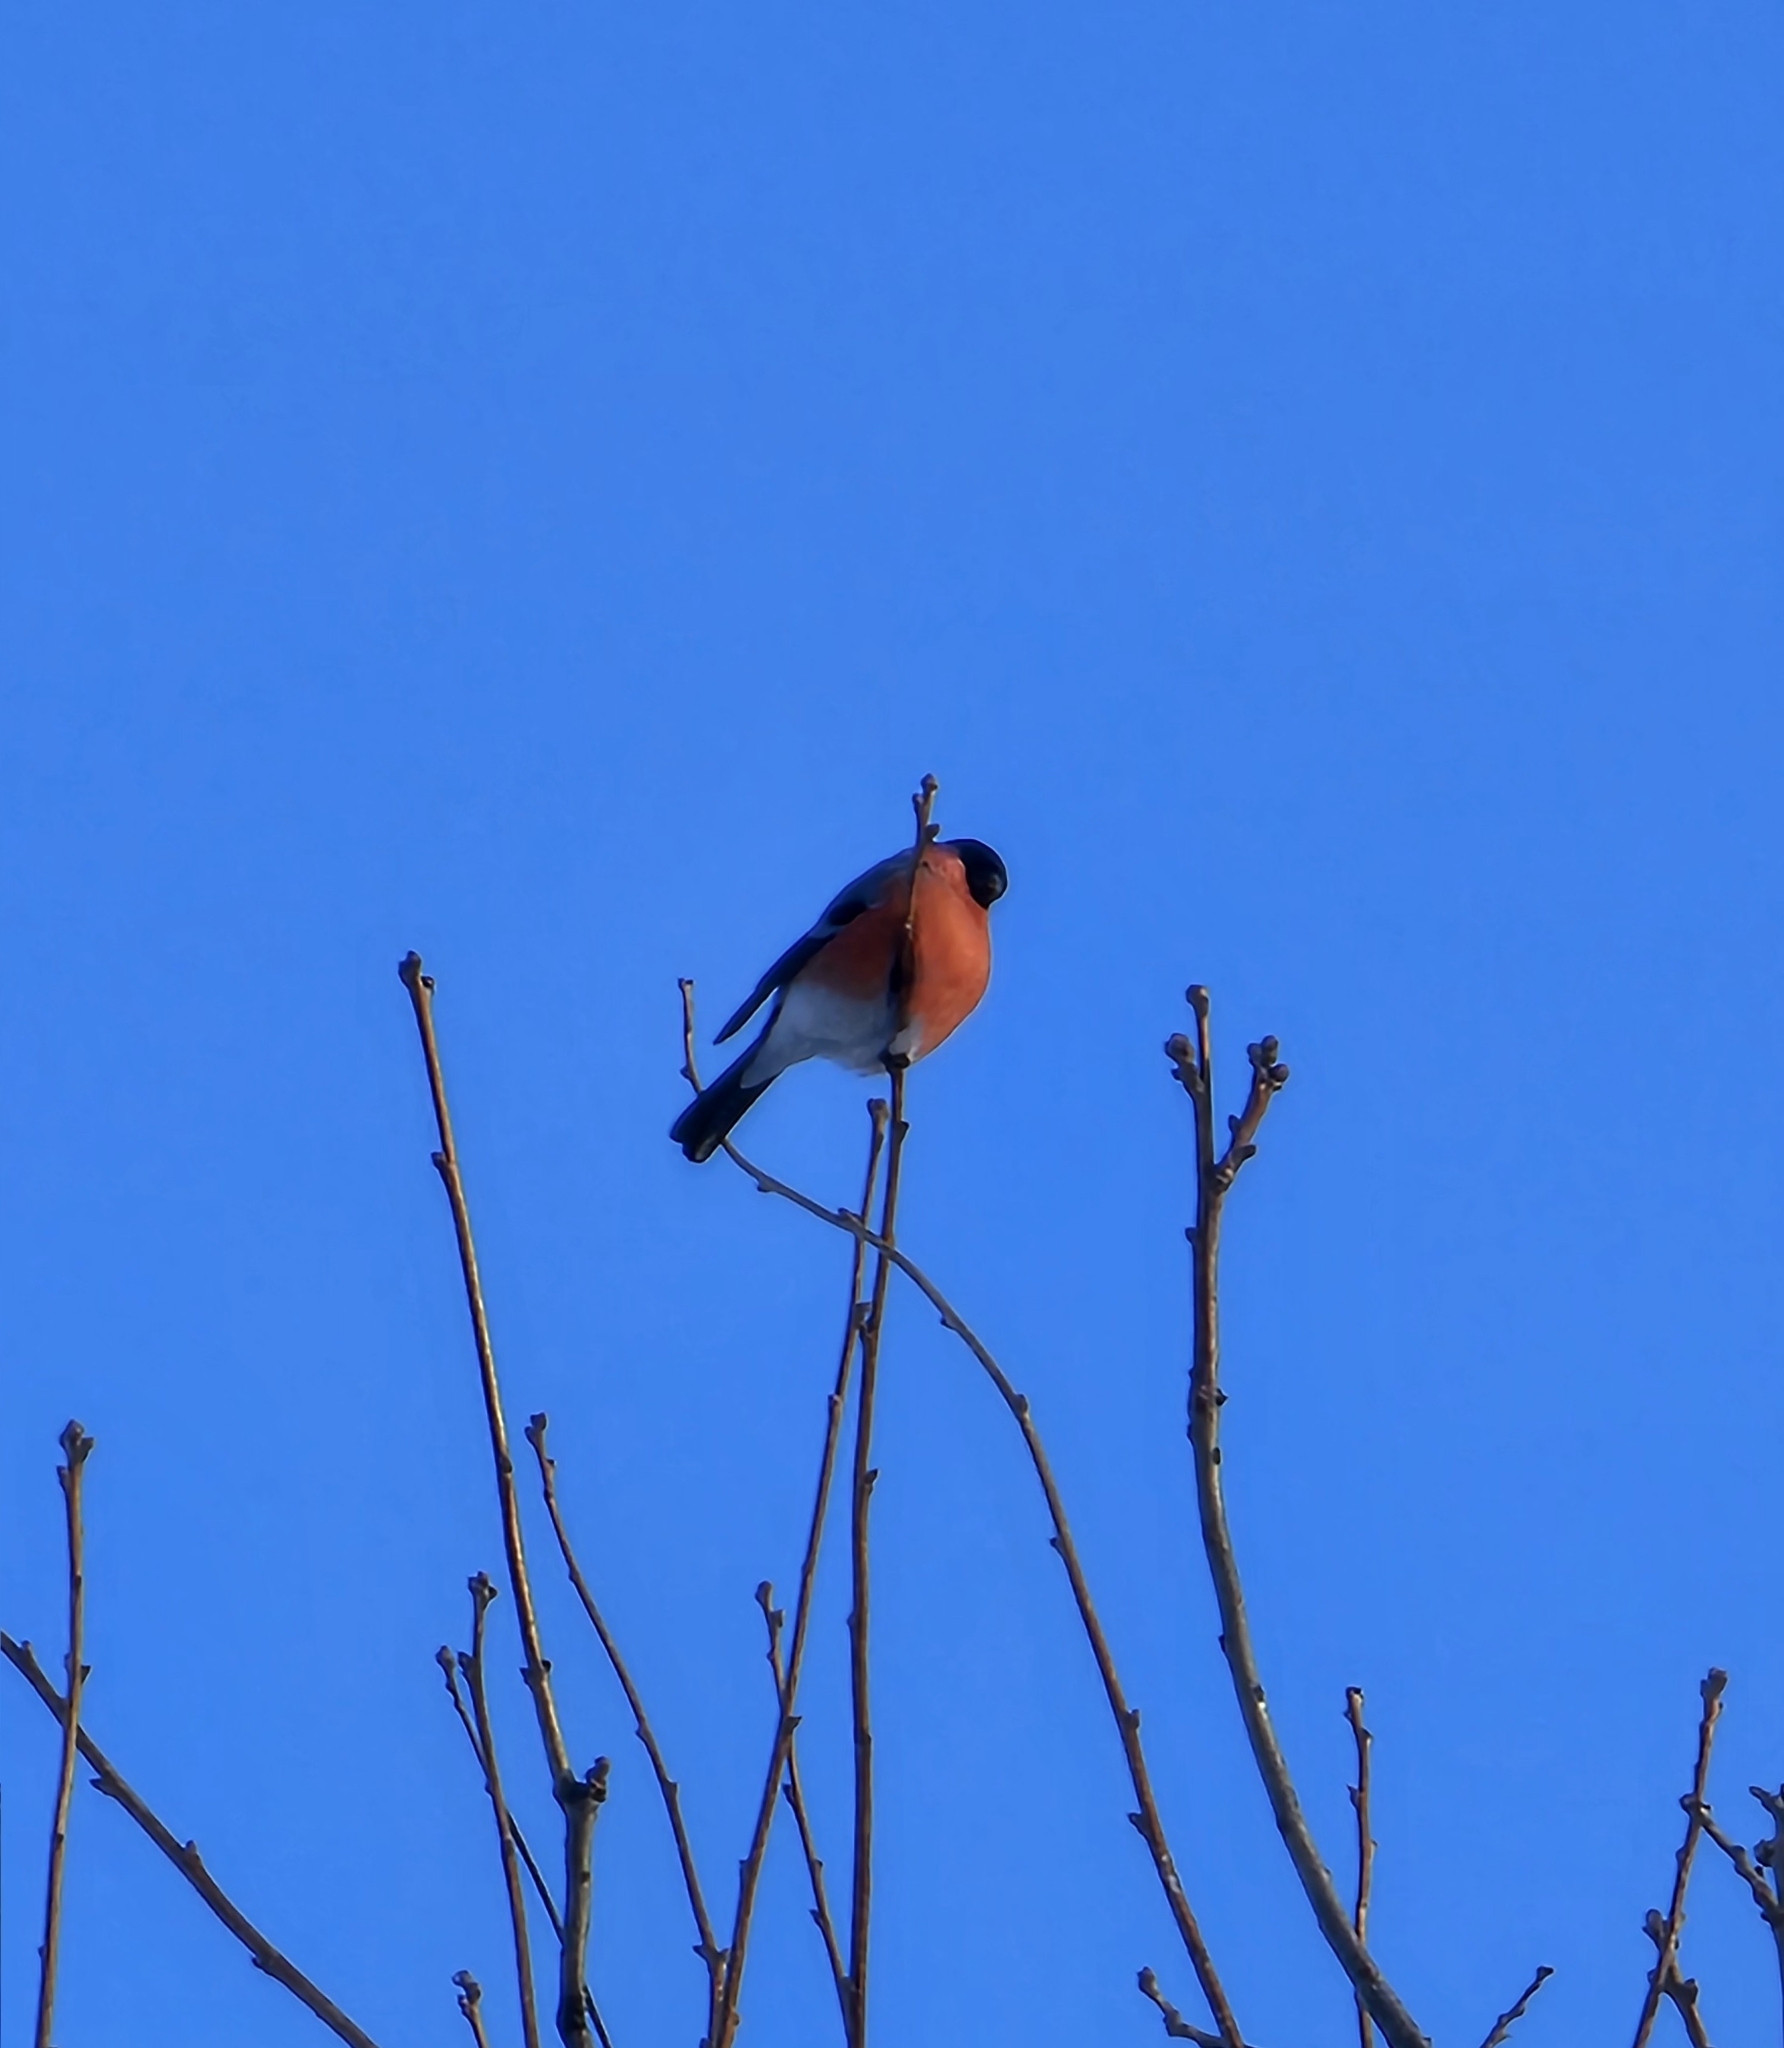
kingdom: Animalia
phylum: Chordata
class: Aves
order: Passeriformes
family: Fringillidae
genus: Pyrrhula
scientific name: Pyrrhula pyrrhula
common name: Eurasian bullfinch
